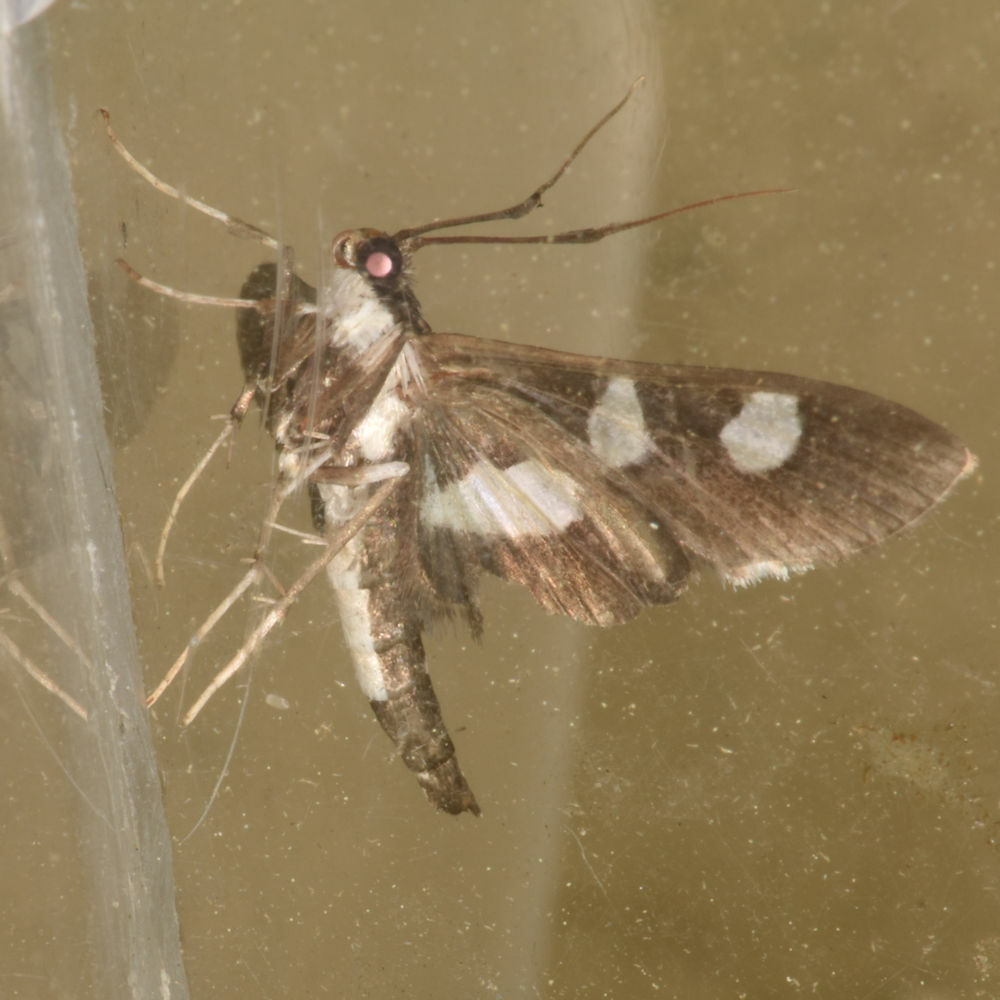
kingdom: Animalia
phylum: Arthropoda
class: Insecta
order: Lepidoptera
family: Crambidae
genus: Desmia
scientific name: Desmia funeralis
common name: Grape leaf folder moth
